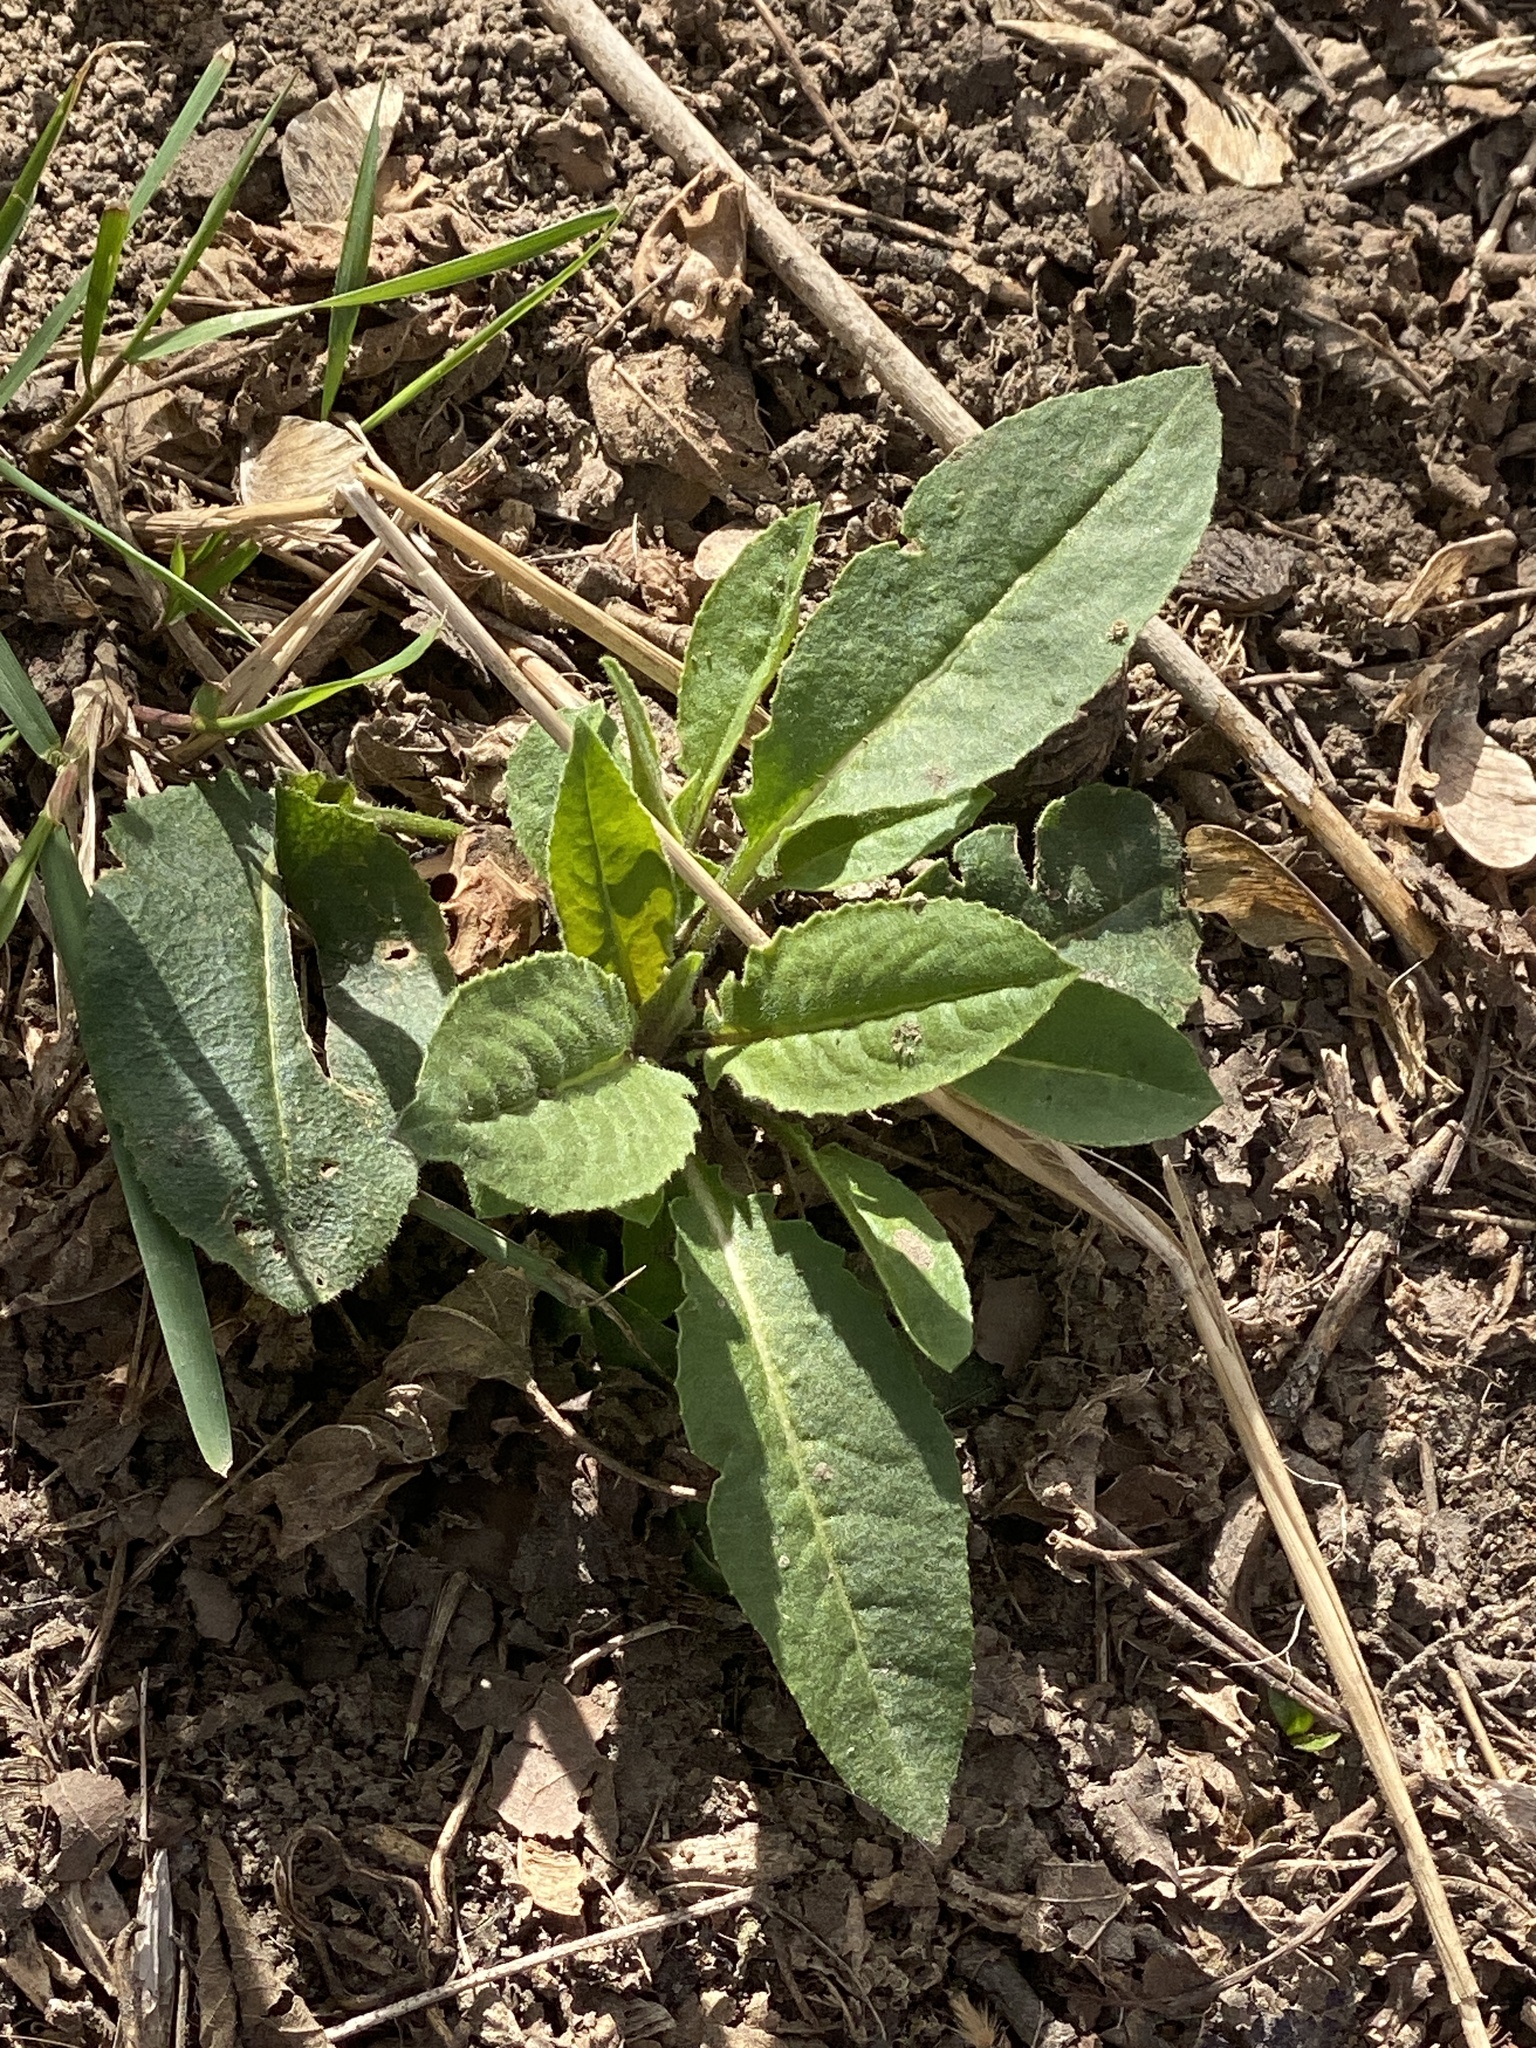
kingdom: Plantae
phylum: Tracheophyta
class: Magnoliopsida
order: Brassicales
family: Brassicaceae
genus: Hesperis
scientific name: Hesperis matronalis
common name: Dame's-violet
